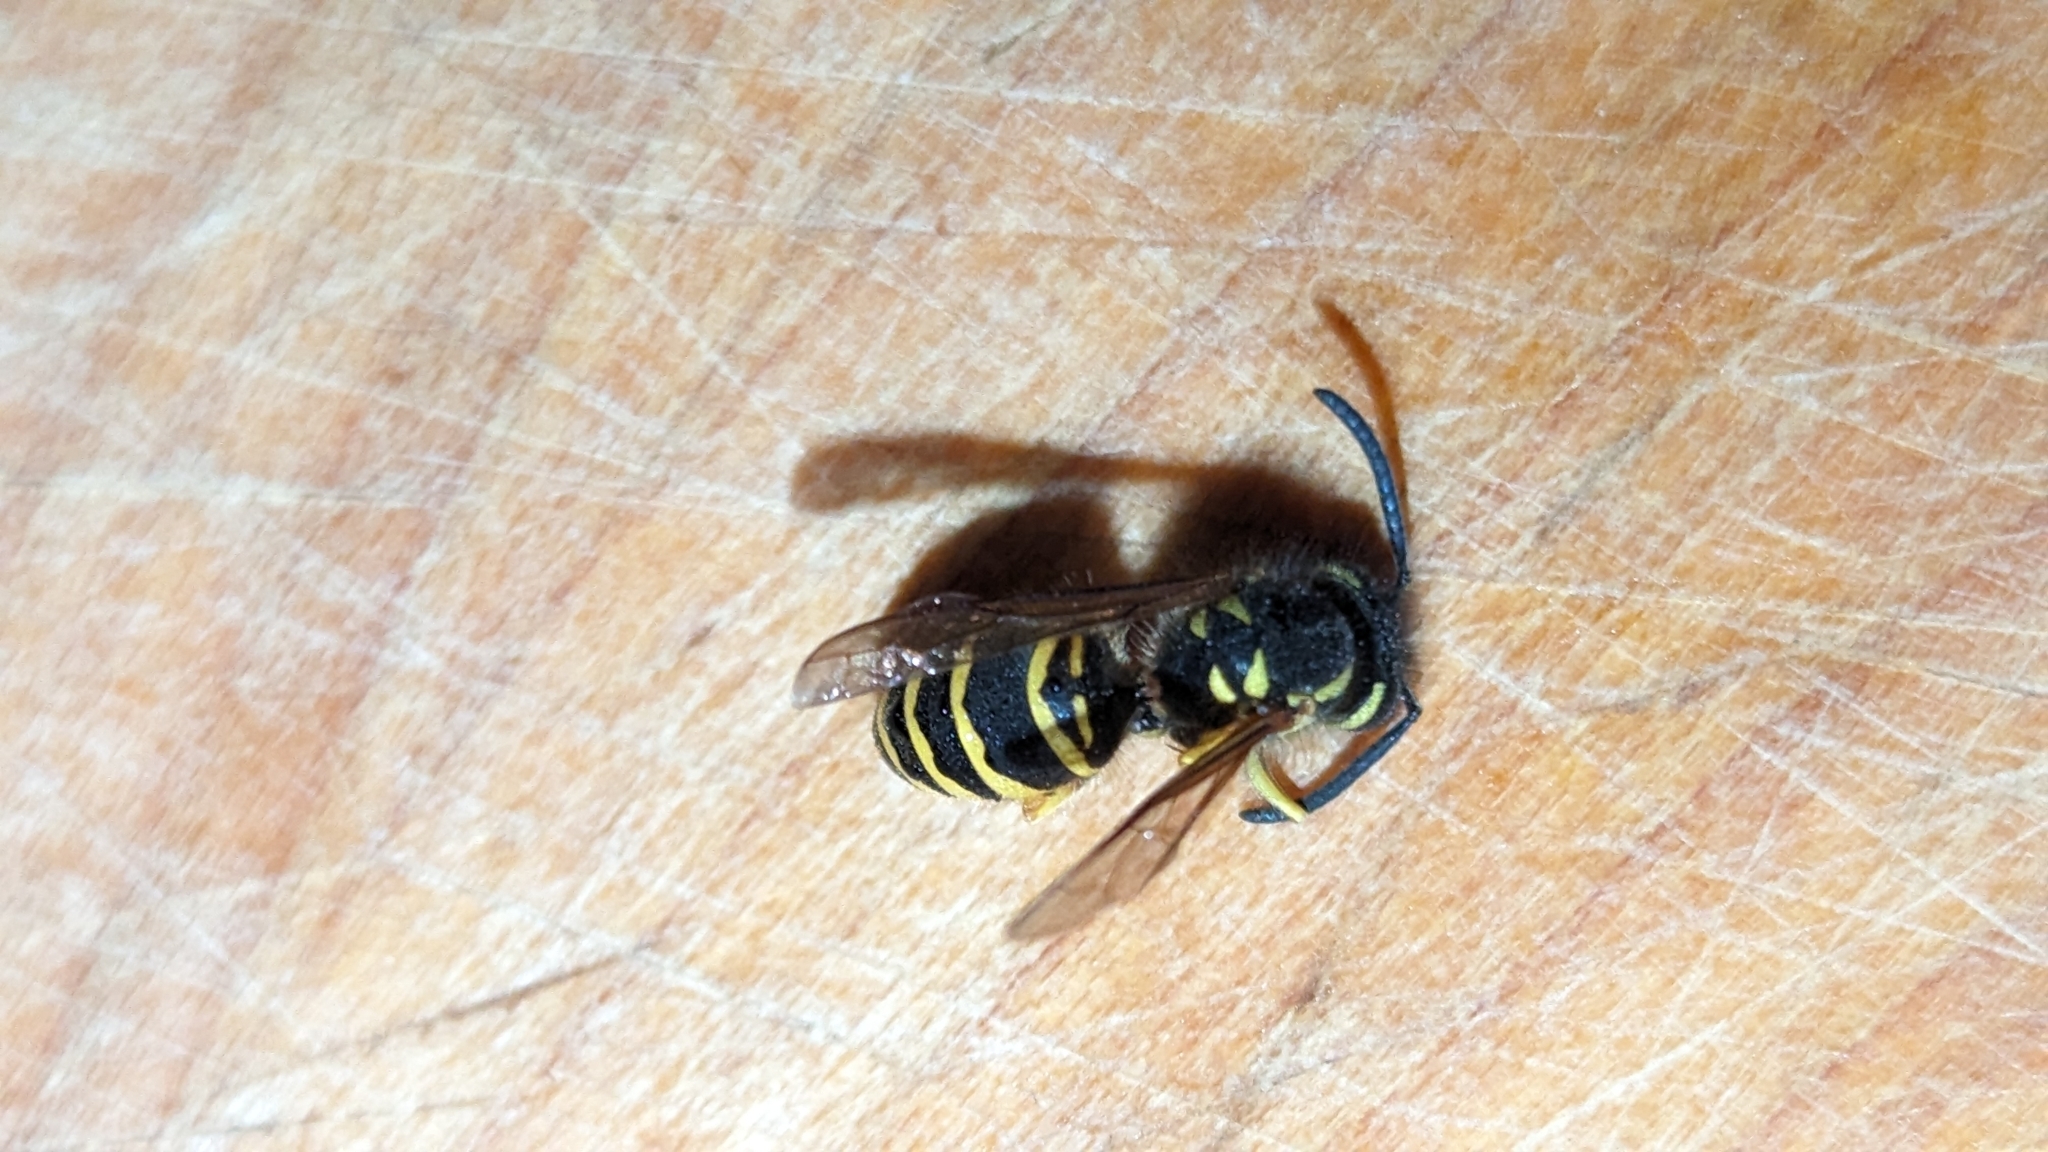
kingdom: Animalia
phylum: Arthropoda
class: Insecta
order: Hymenoptera
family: Vespidae
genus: Vespula
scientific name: Vespula maculifrons
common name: Eastern yellowjacket
